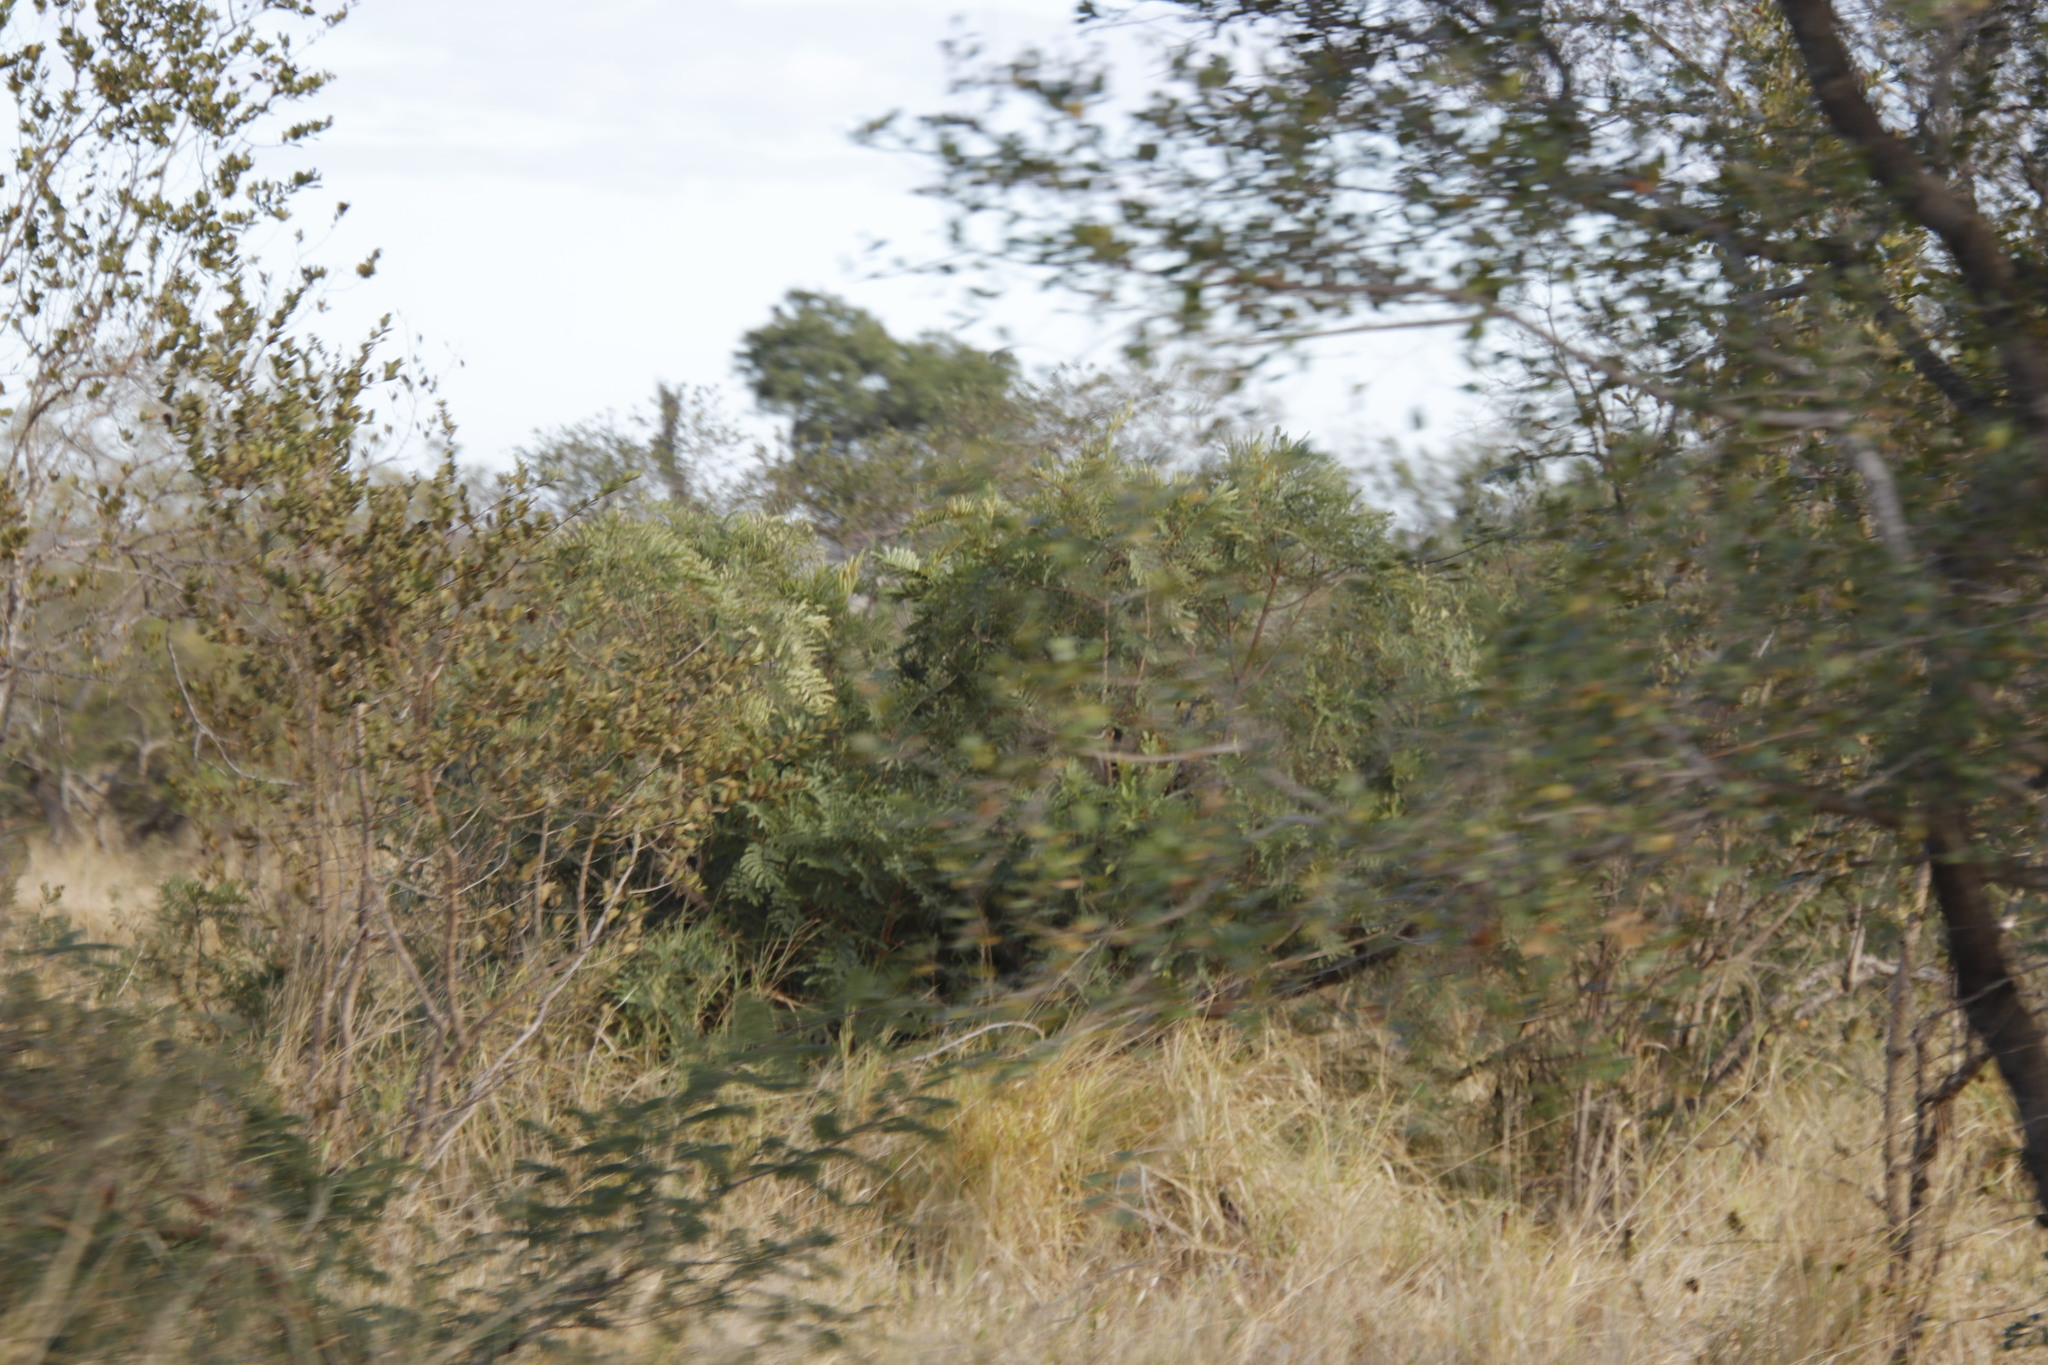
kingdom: Plantae
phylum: Tracheophyta
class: Magnoliopsida
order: Fabales
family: Fabaceae
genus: Peltophorum
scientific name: Peltophorum africanum
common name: African black wattle
